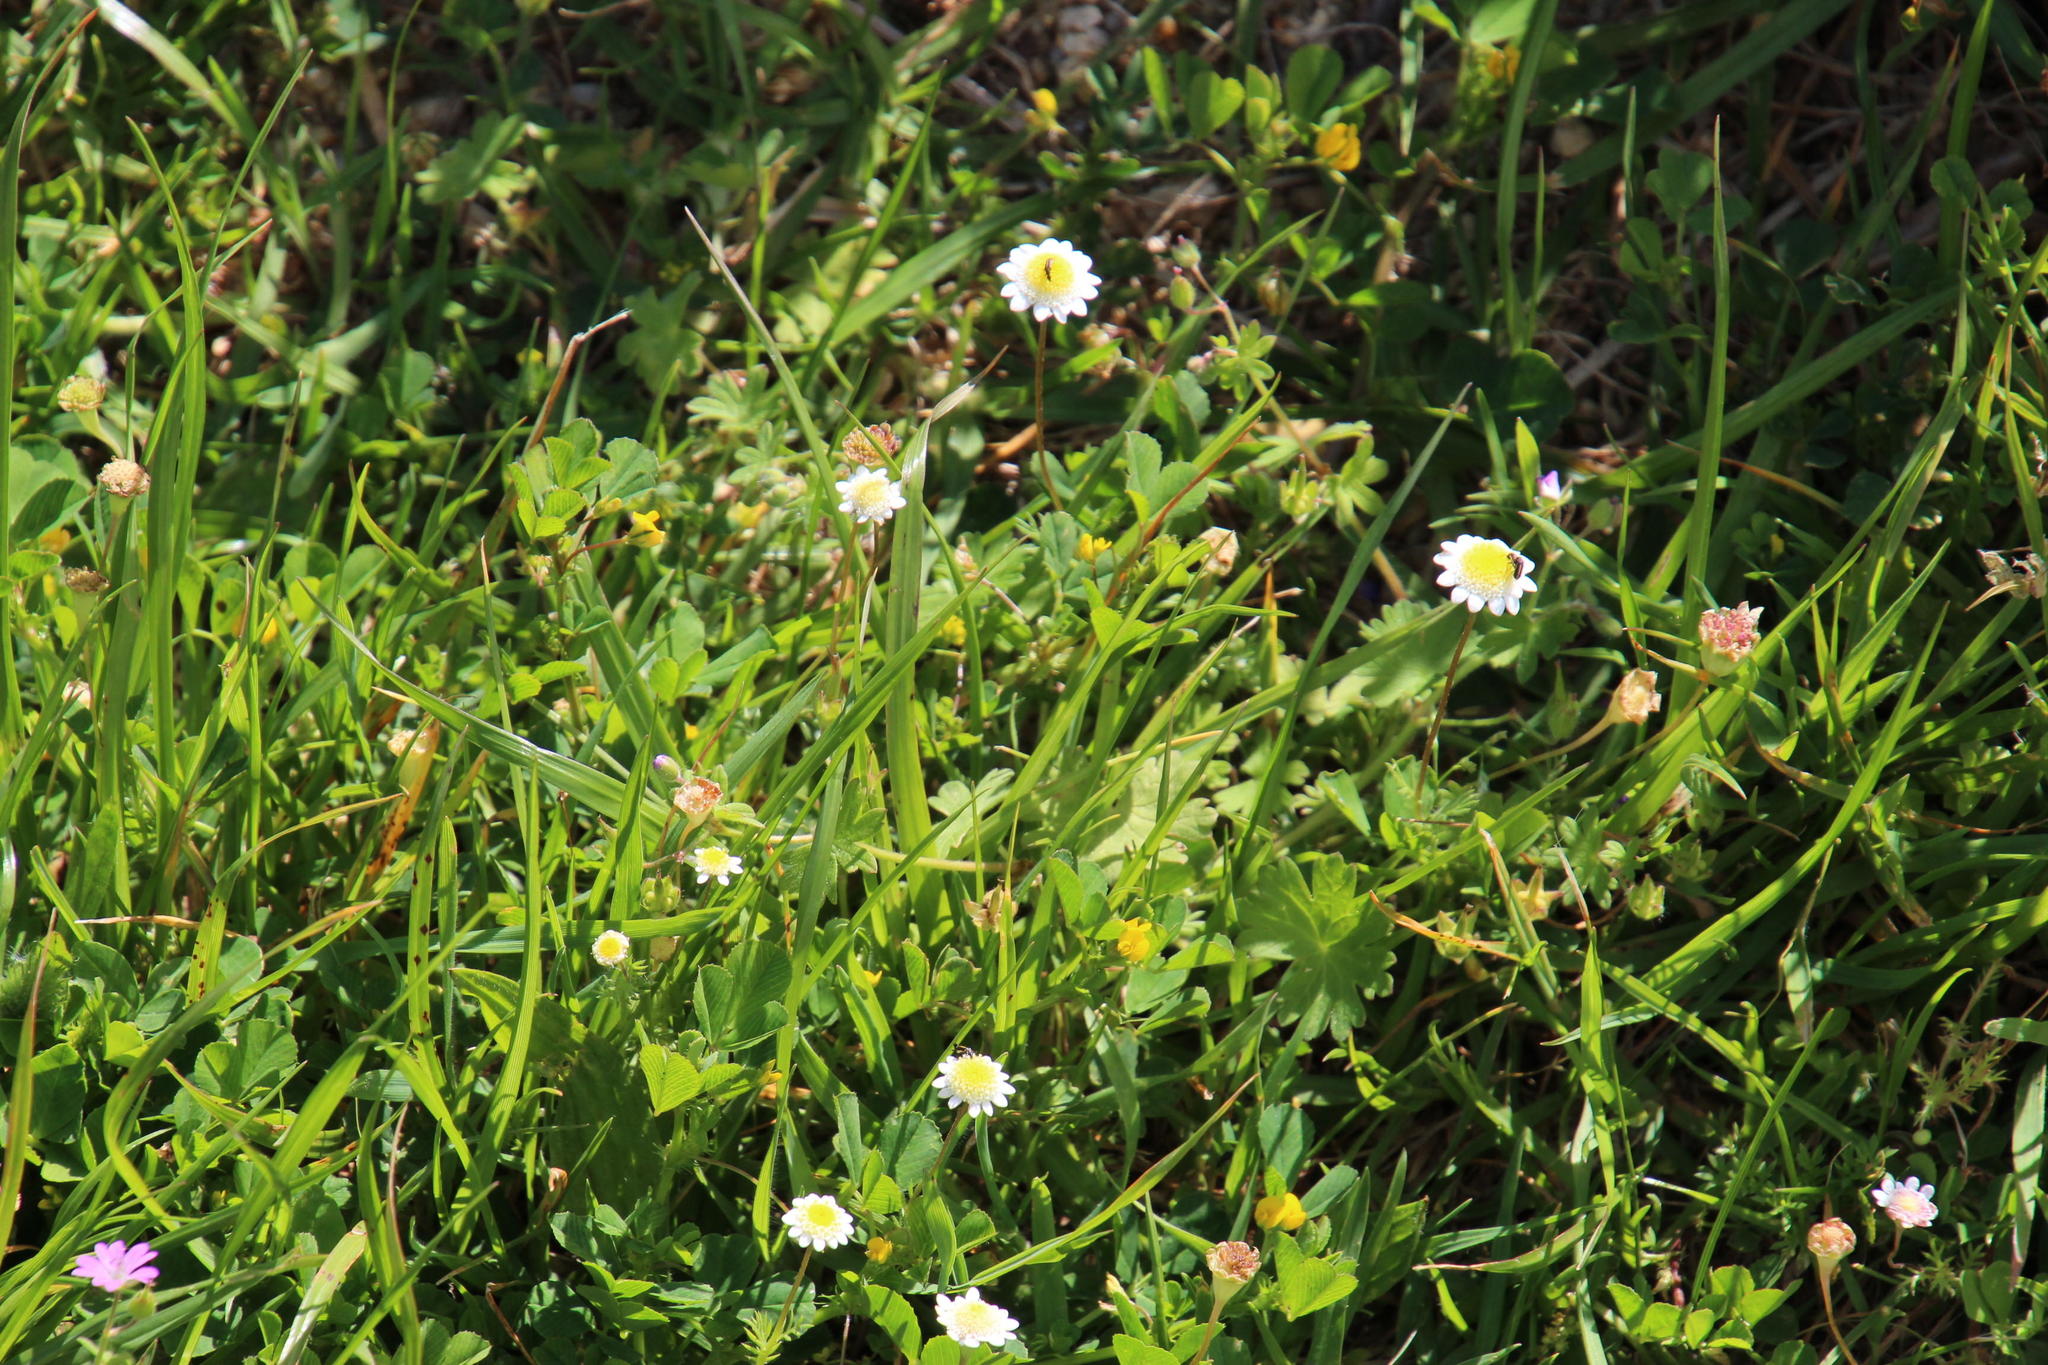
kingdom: Plantae
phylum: Tracheophyta
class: Magnoliopsida
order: Asterales
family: Asteraceae
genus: Cotula
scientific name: Cotula turbinata
